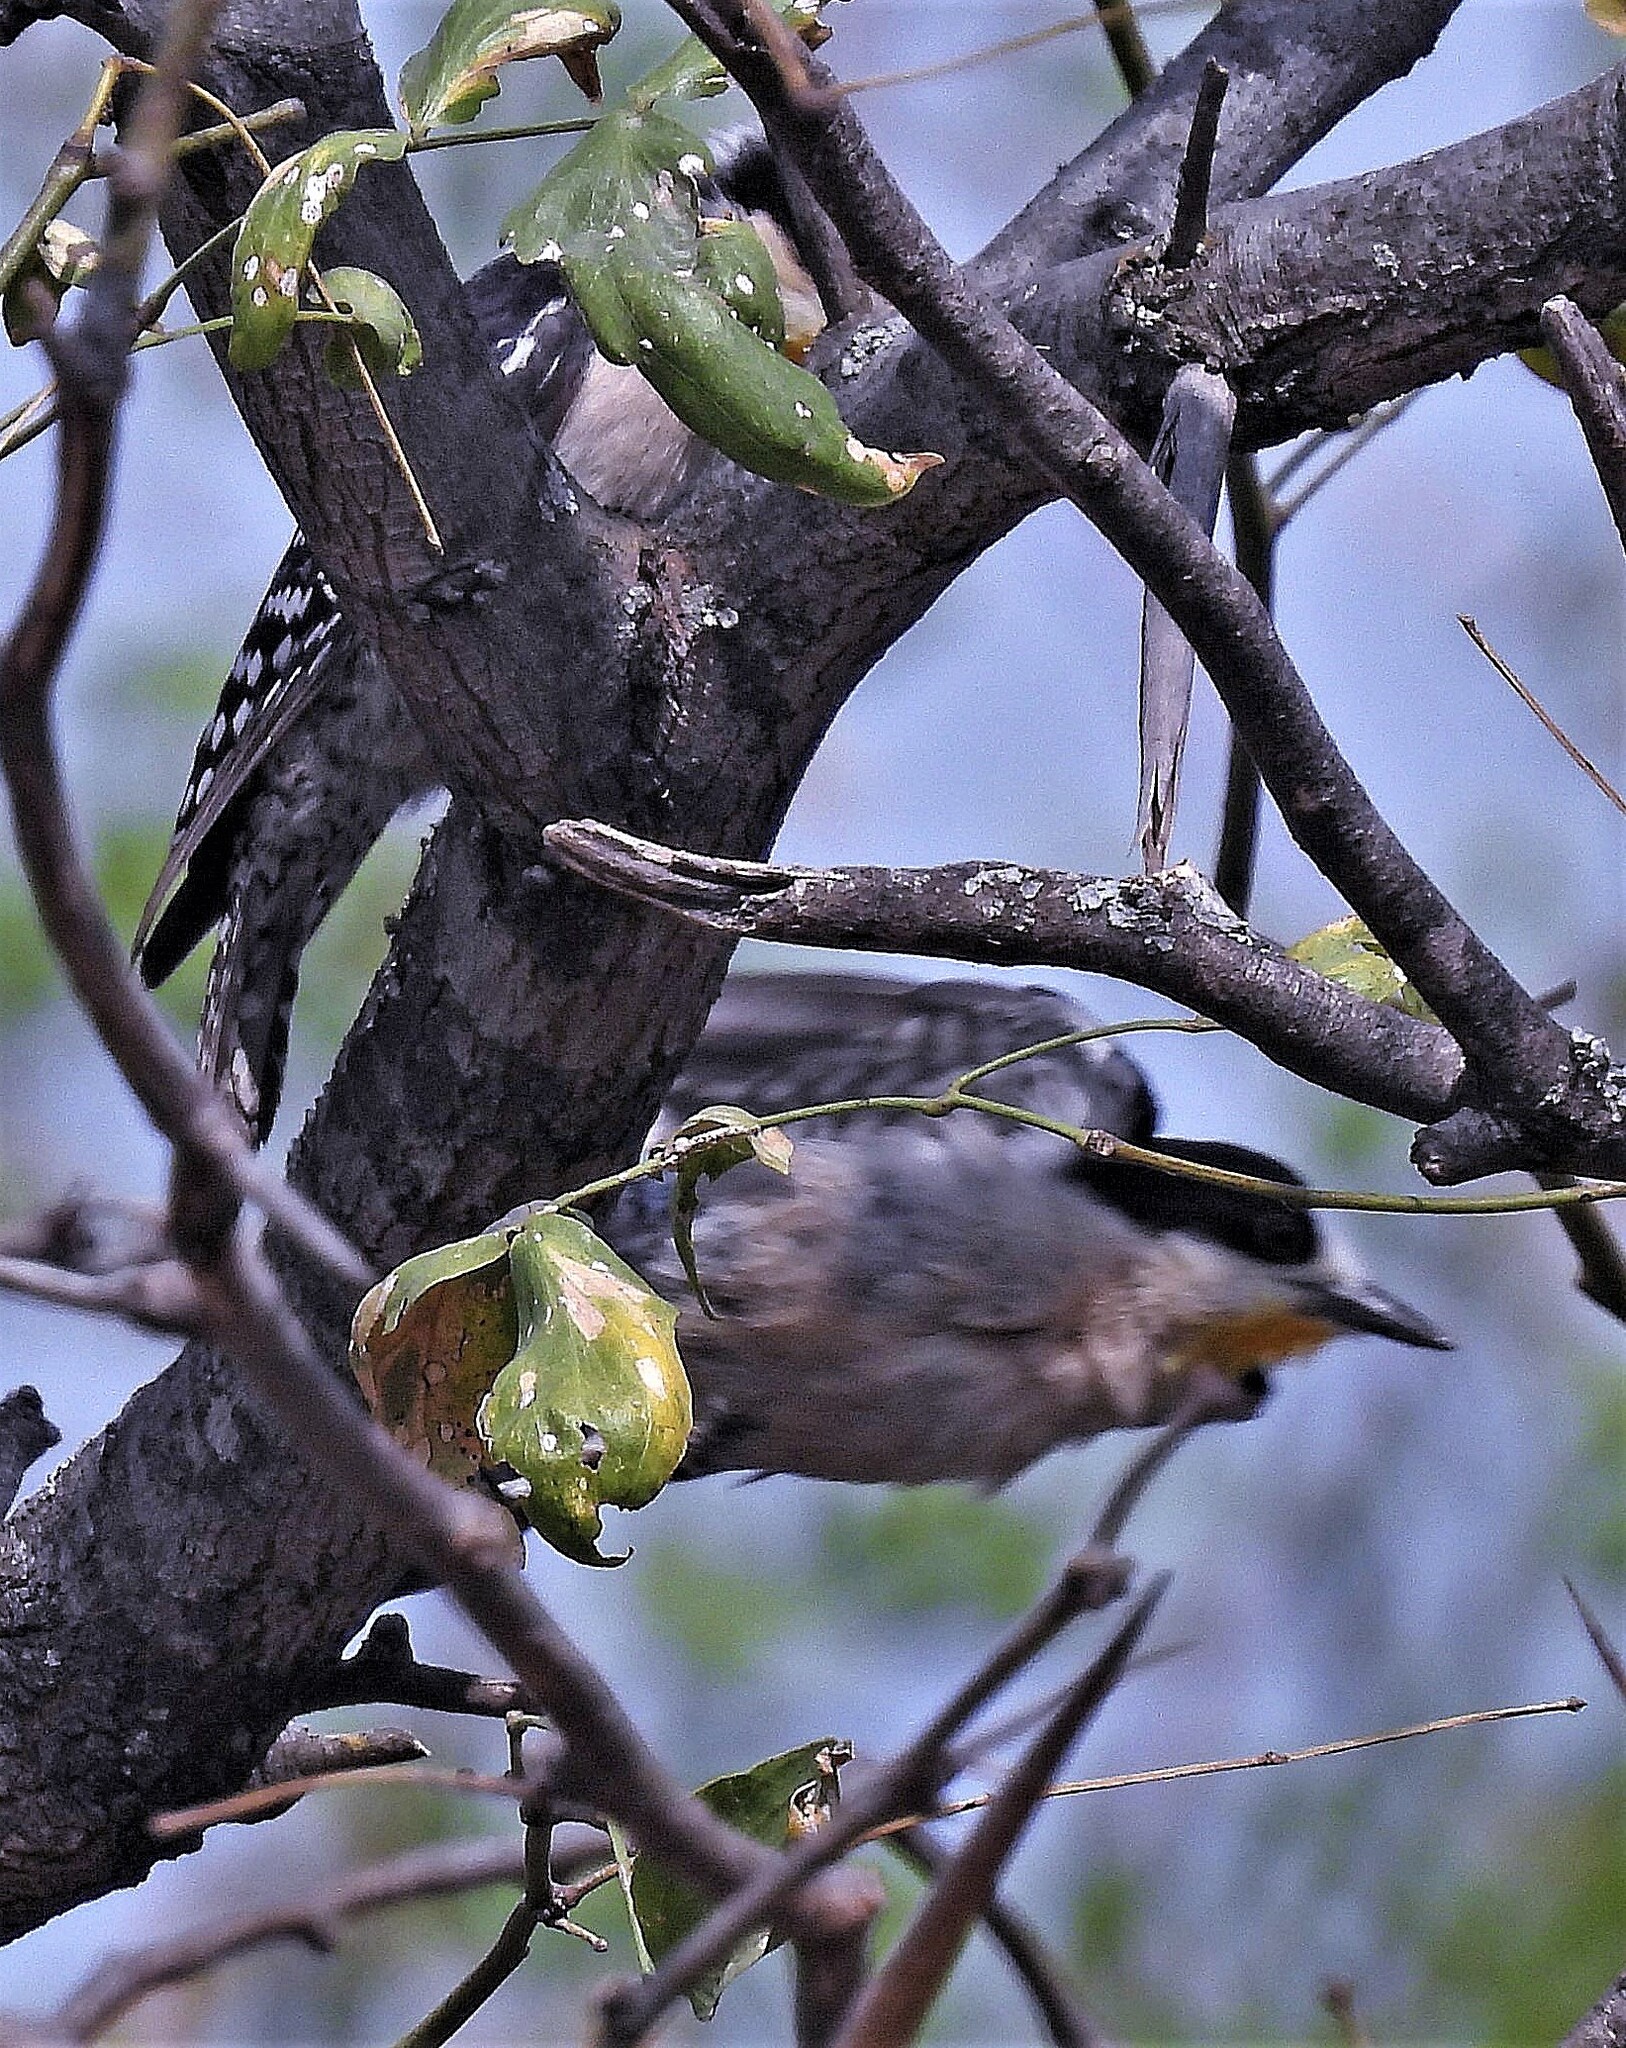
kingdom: Animalia
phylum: Chordata
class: Aves
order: Piciformes
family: Picidae
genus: Melanerpes
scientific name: Melanerpes cactorum
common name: White-fronted woodpecker
